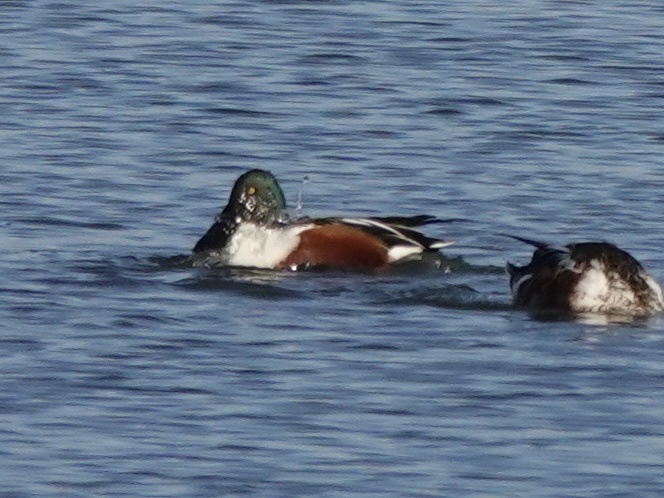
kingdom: Animalia
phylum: Chordata
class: Aves
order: Anseriformes
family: Anatidae
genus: Spatula
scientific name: Spatula clypeata
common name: Northern shoveler
